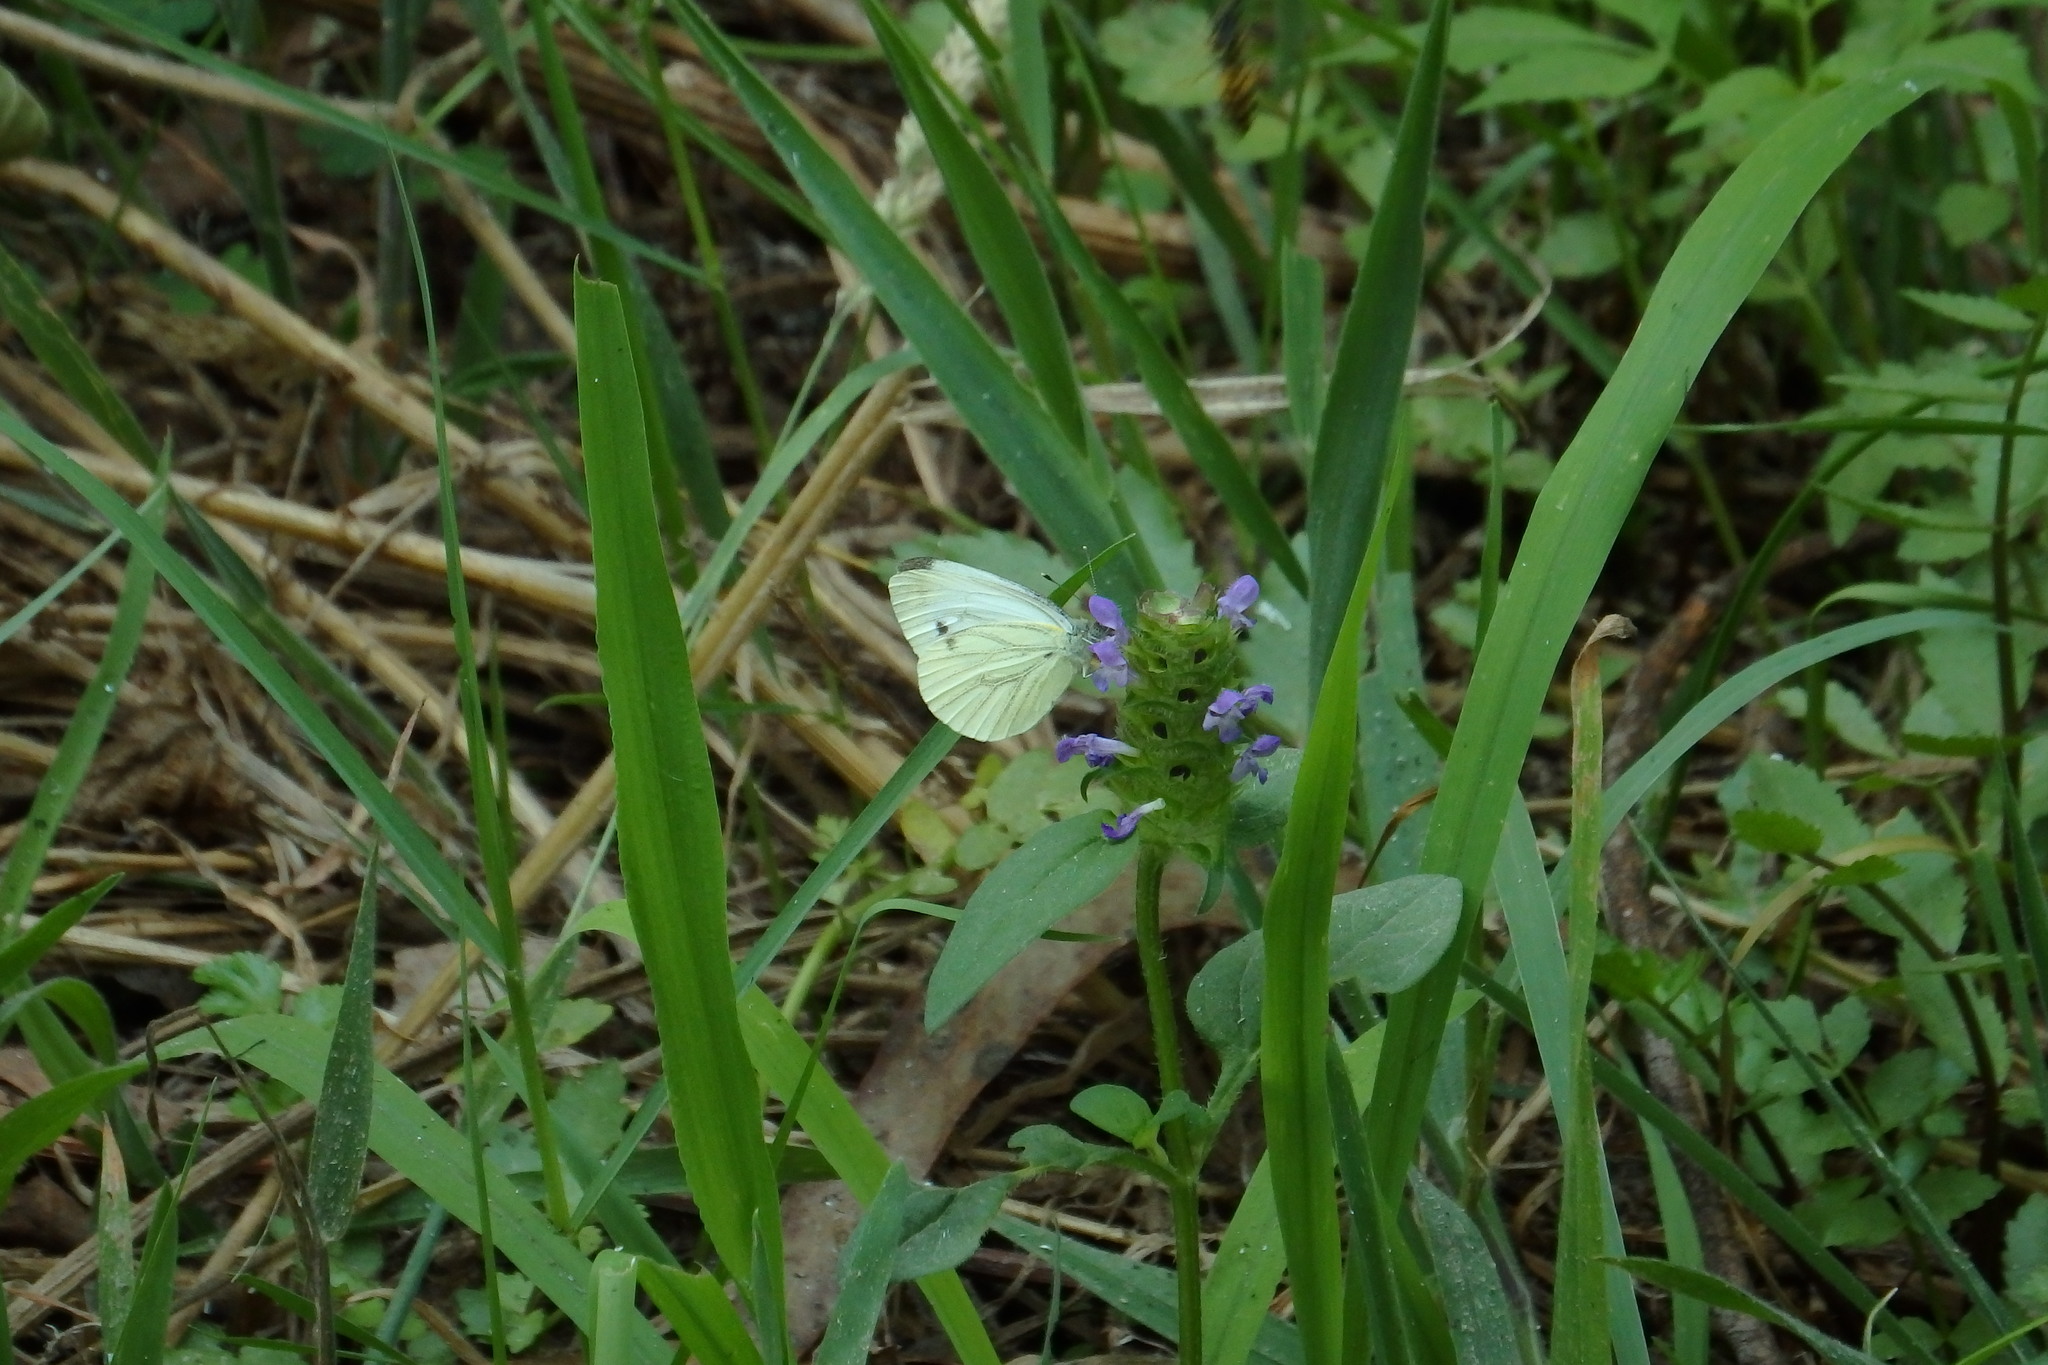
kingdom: Animalia
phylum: Arthropoda
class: Insecta
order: Lepidoptera
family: Pieridae
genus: Pieris
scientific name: Pieris napi
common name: Green-veined white
